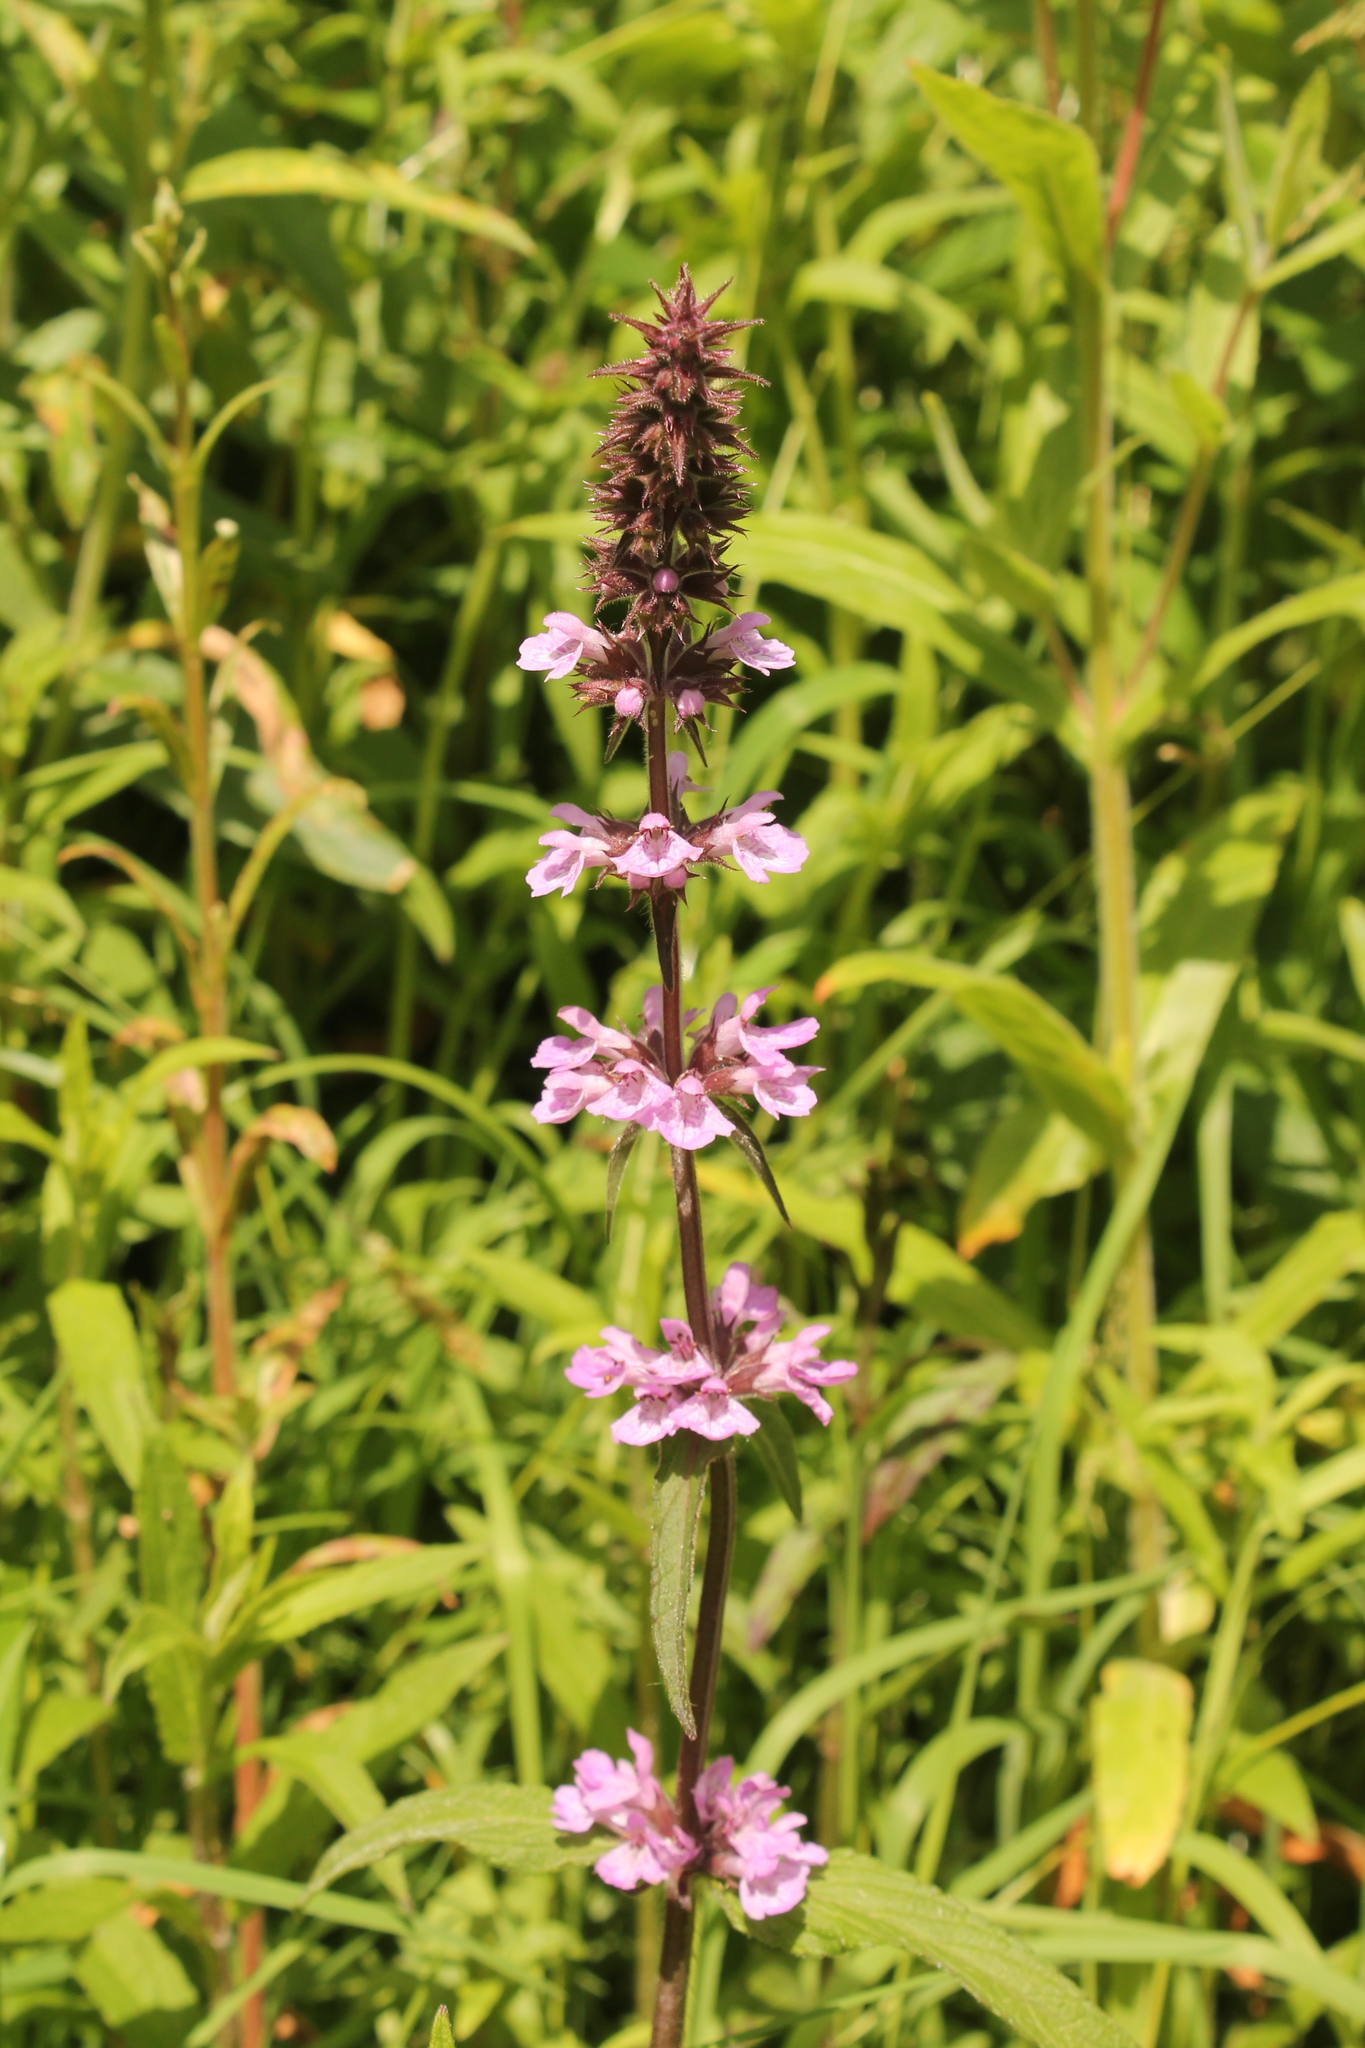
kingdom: Plantae
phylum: Tracheophyta
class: Magnoliopsida
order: Lamiales
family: Lamiaceae
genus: Stachys
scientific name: Stachys palustris
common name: Marsh woundwort
